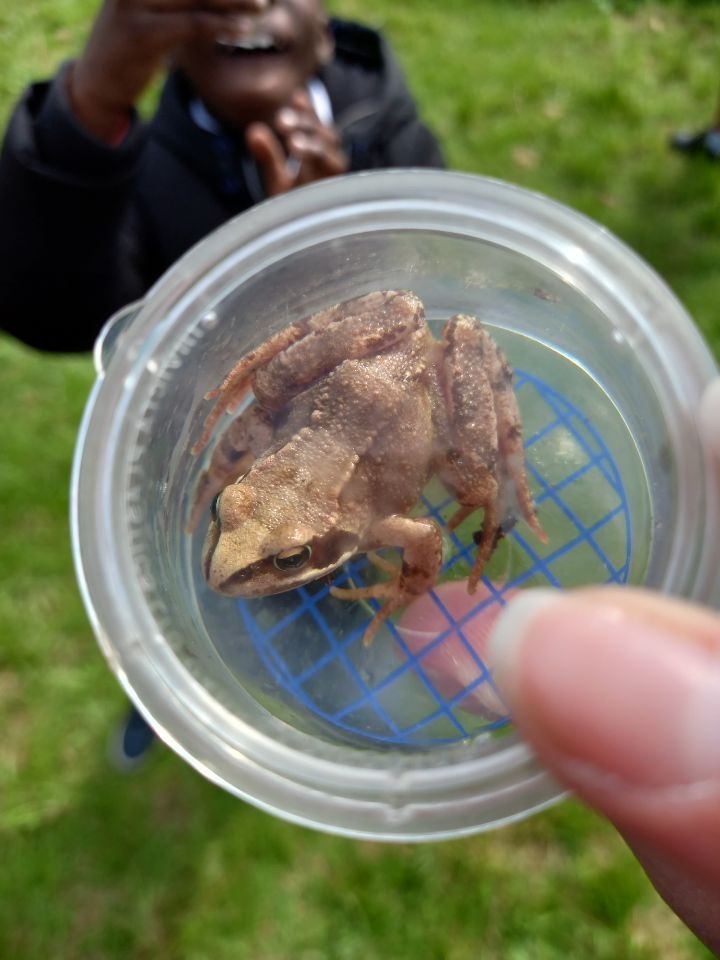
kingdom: Animalia
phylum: Chordata
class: Amphibia
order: Anura
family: Ranidae
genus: Rana
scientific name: Rana temporaria
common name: Common frog
